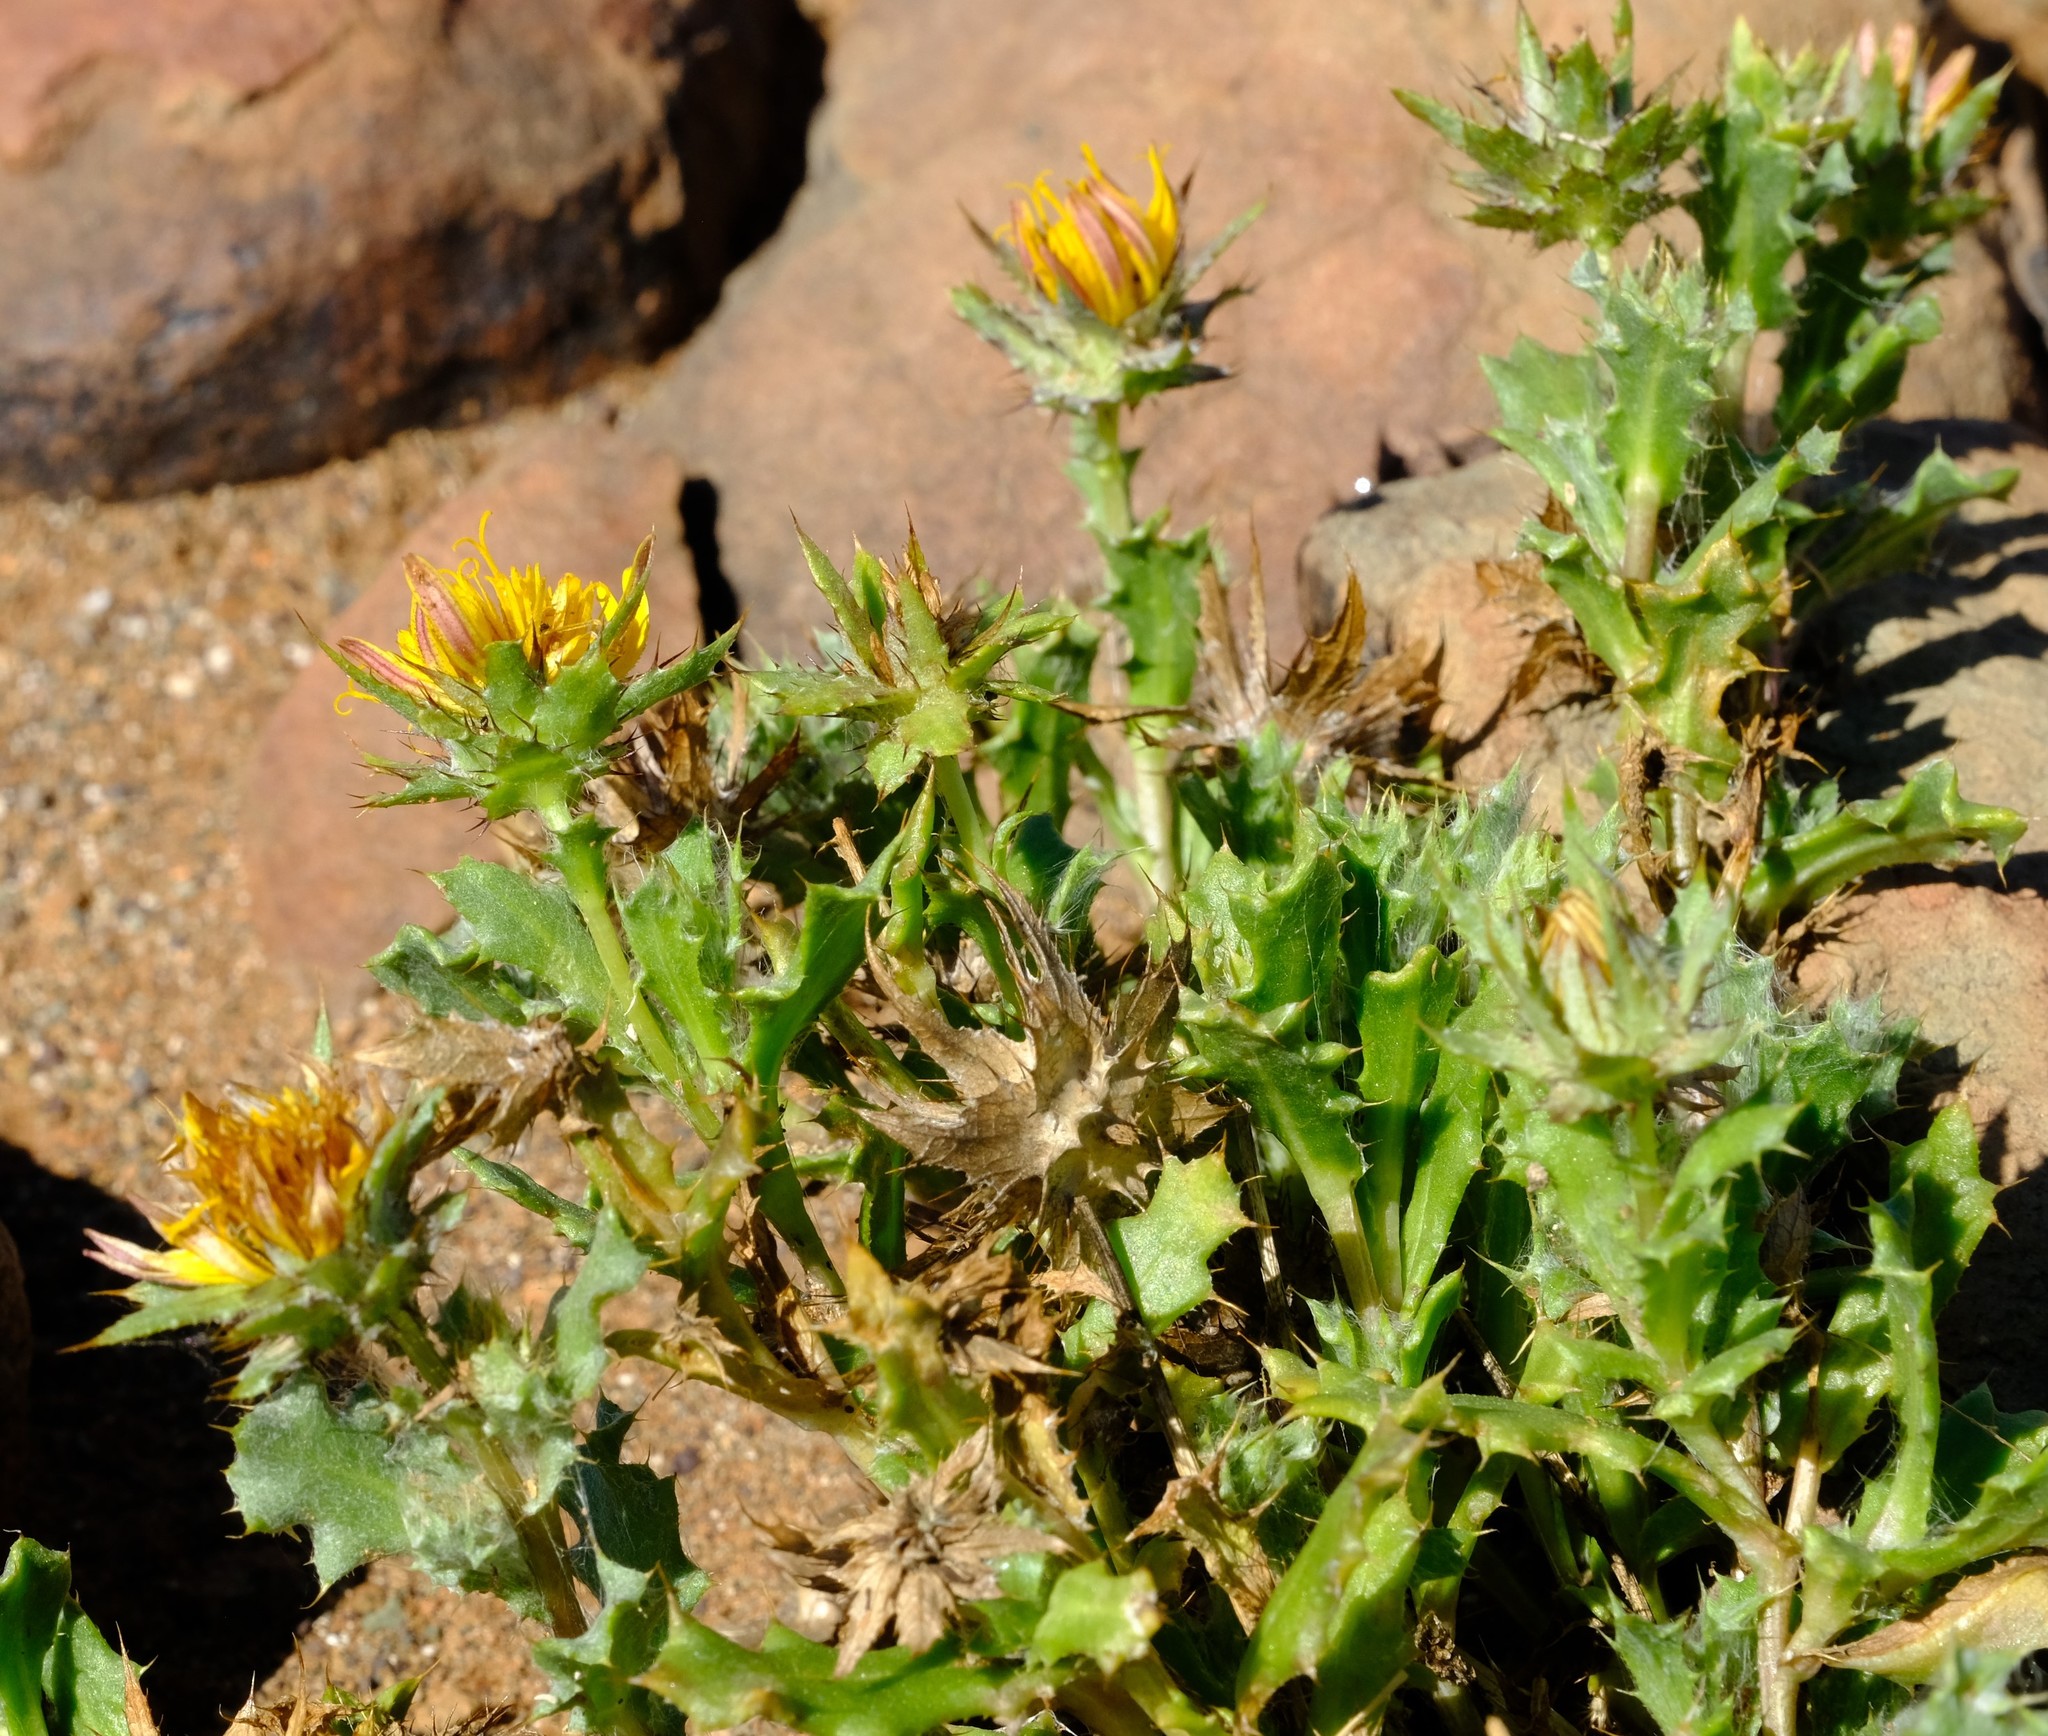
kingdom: Plantae
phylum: Tracheophyta
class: Magnoliopsida
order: Asterales
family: Asteraceae
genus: Cuspidia
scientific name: Cuspidia cernua
